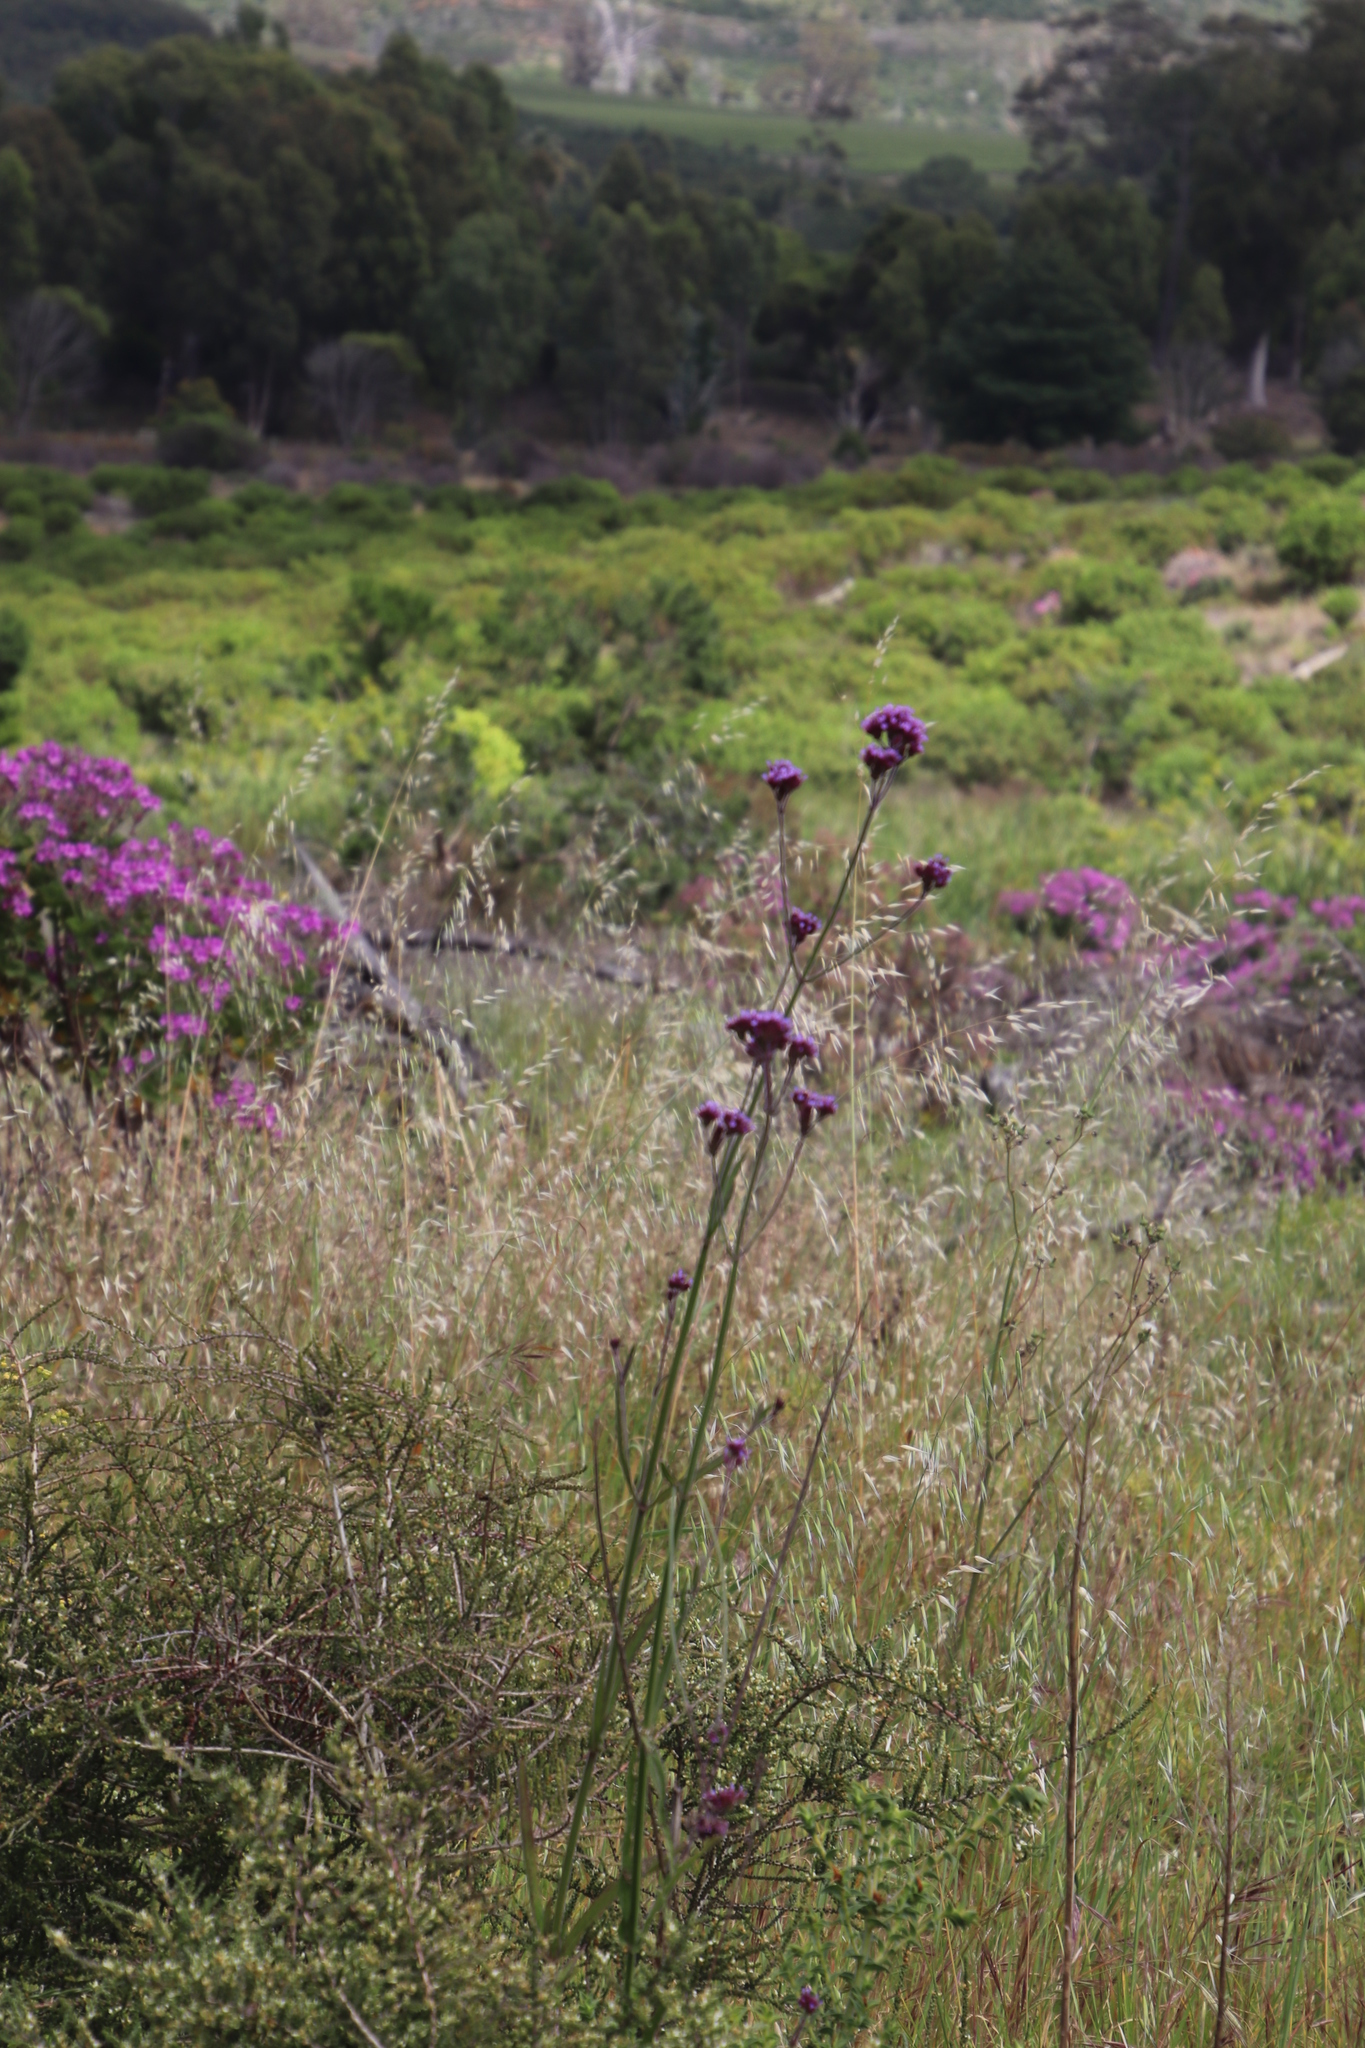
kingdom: Plantae
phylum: Tracheophyta
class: Magnoliopsida
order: Lamiales
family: Verbenaceae
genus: Verbena
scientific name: Verbena bonariensis
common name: Purpletop vervain
